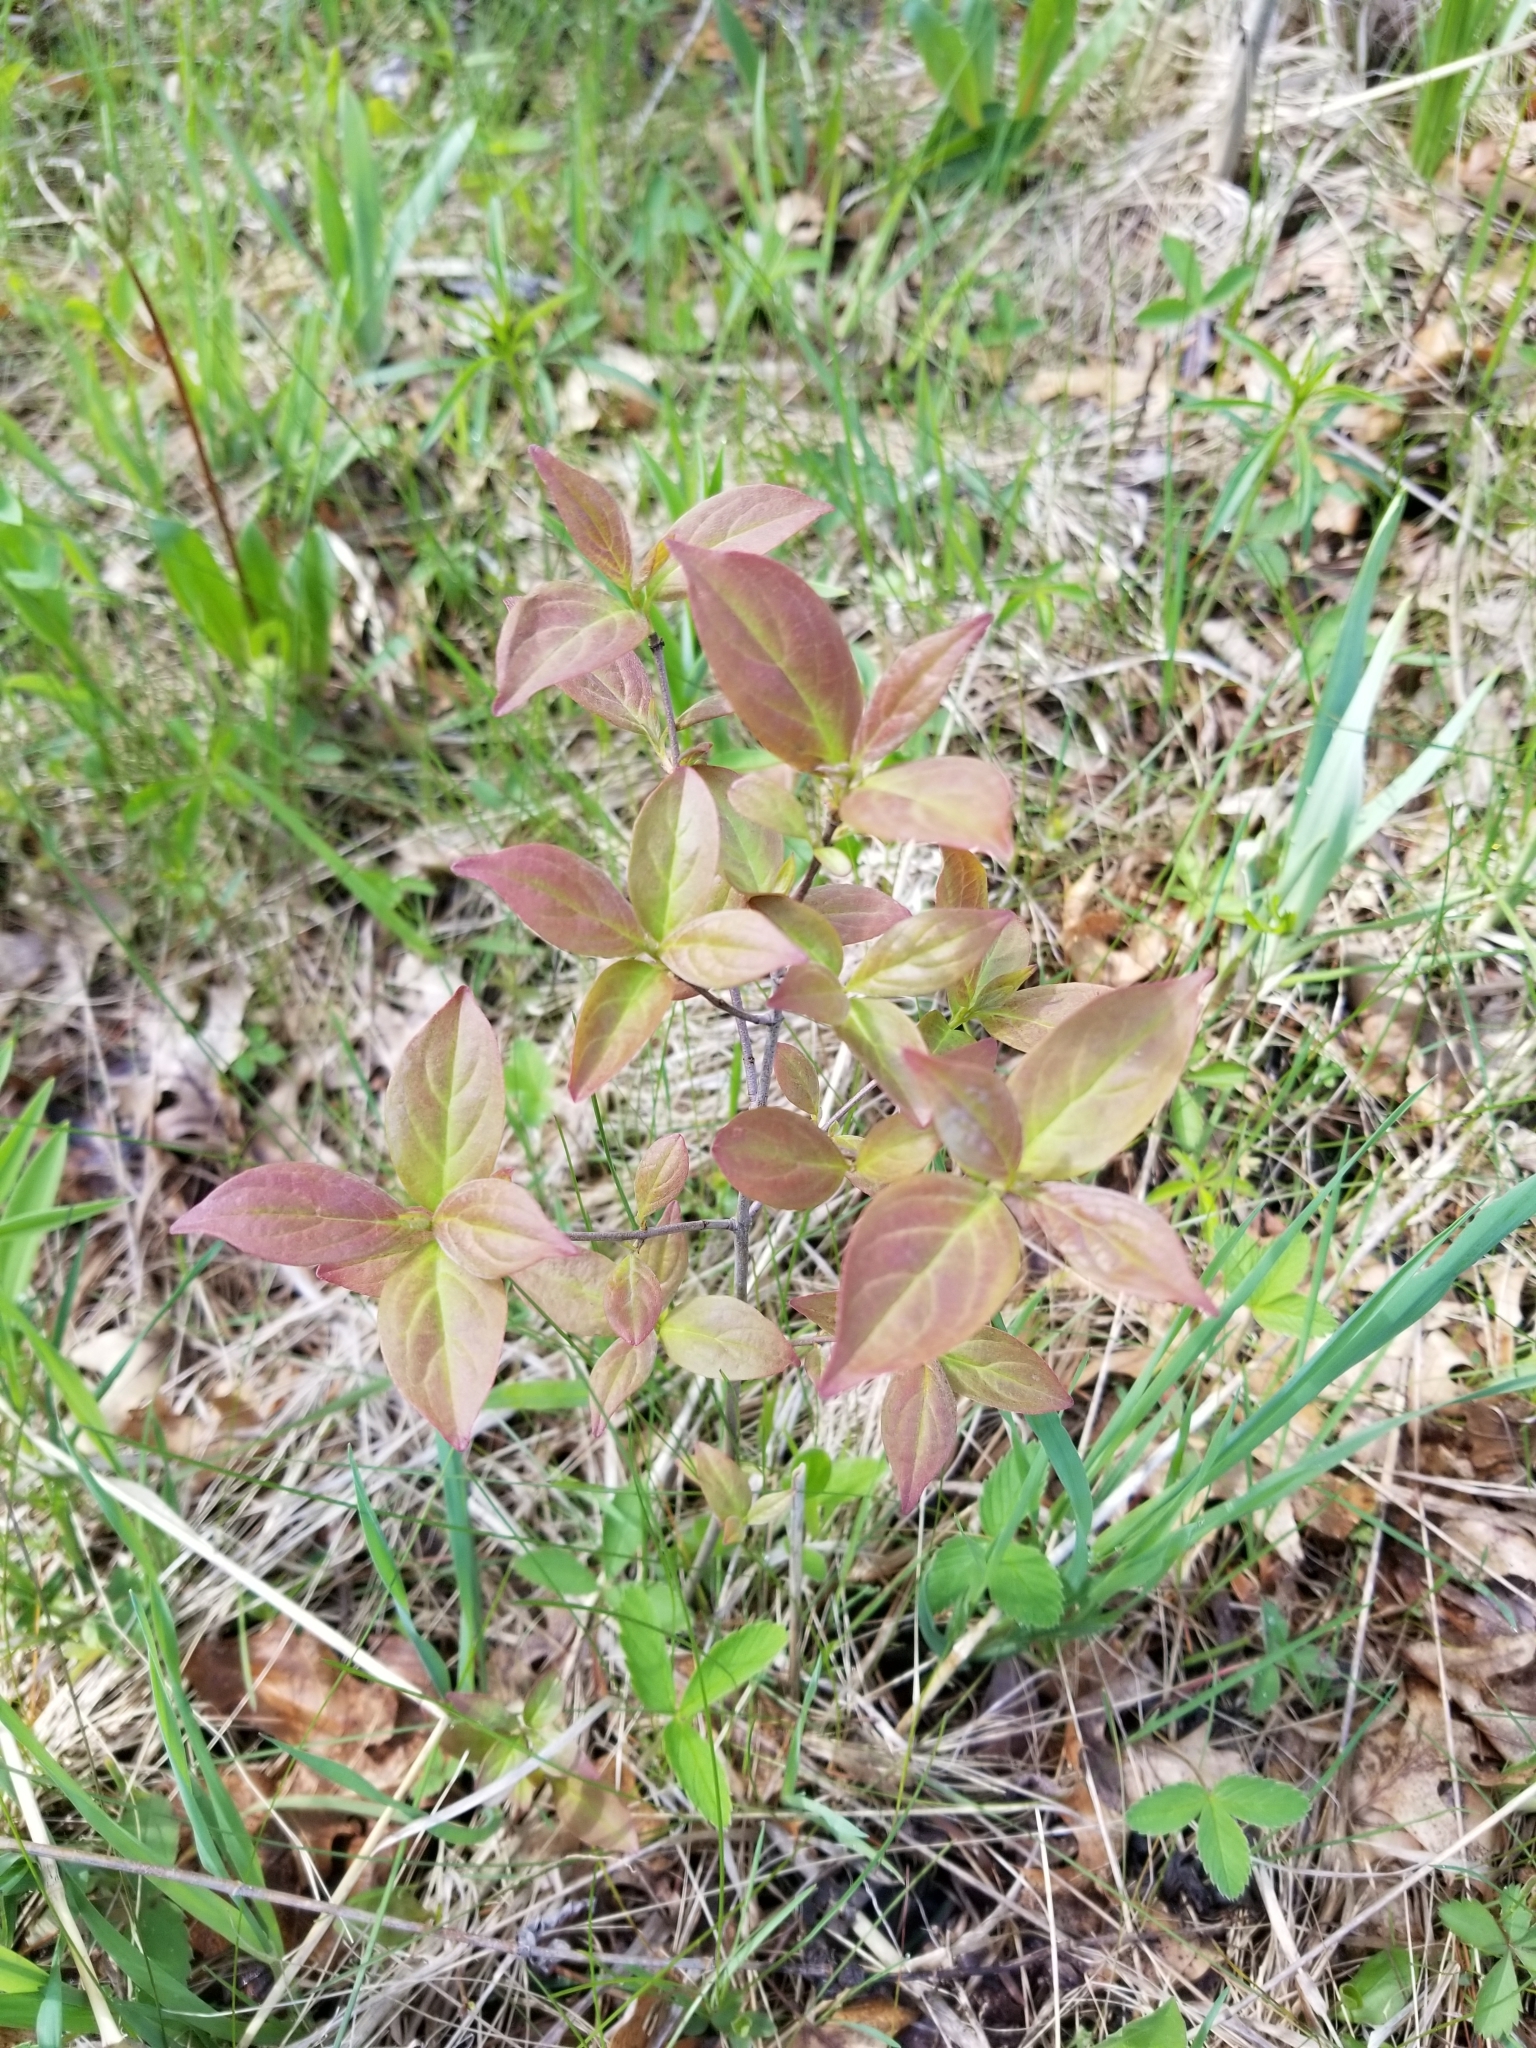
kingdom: Plantae
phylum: Tracheophyta
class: Magnoliopsida
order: Cornales
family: Cornaceae
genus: Cornus
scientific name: Cornus racemosa
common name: Panicled dogwood
